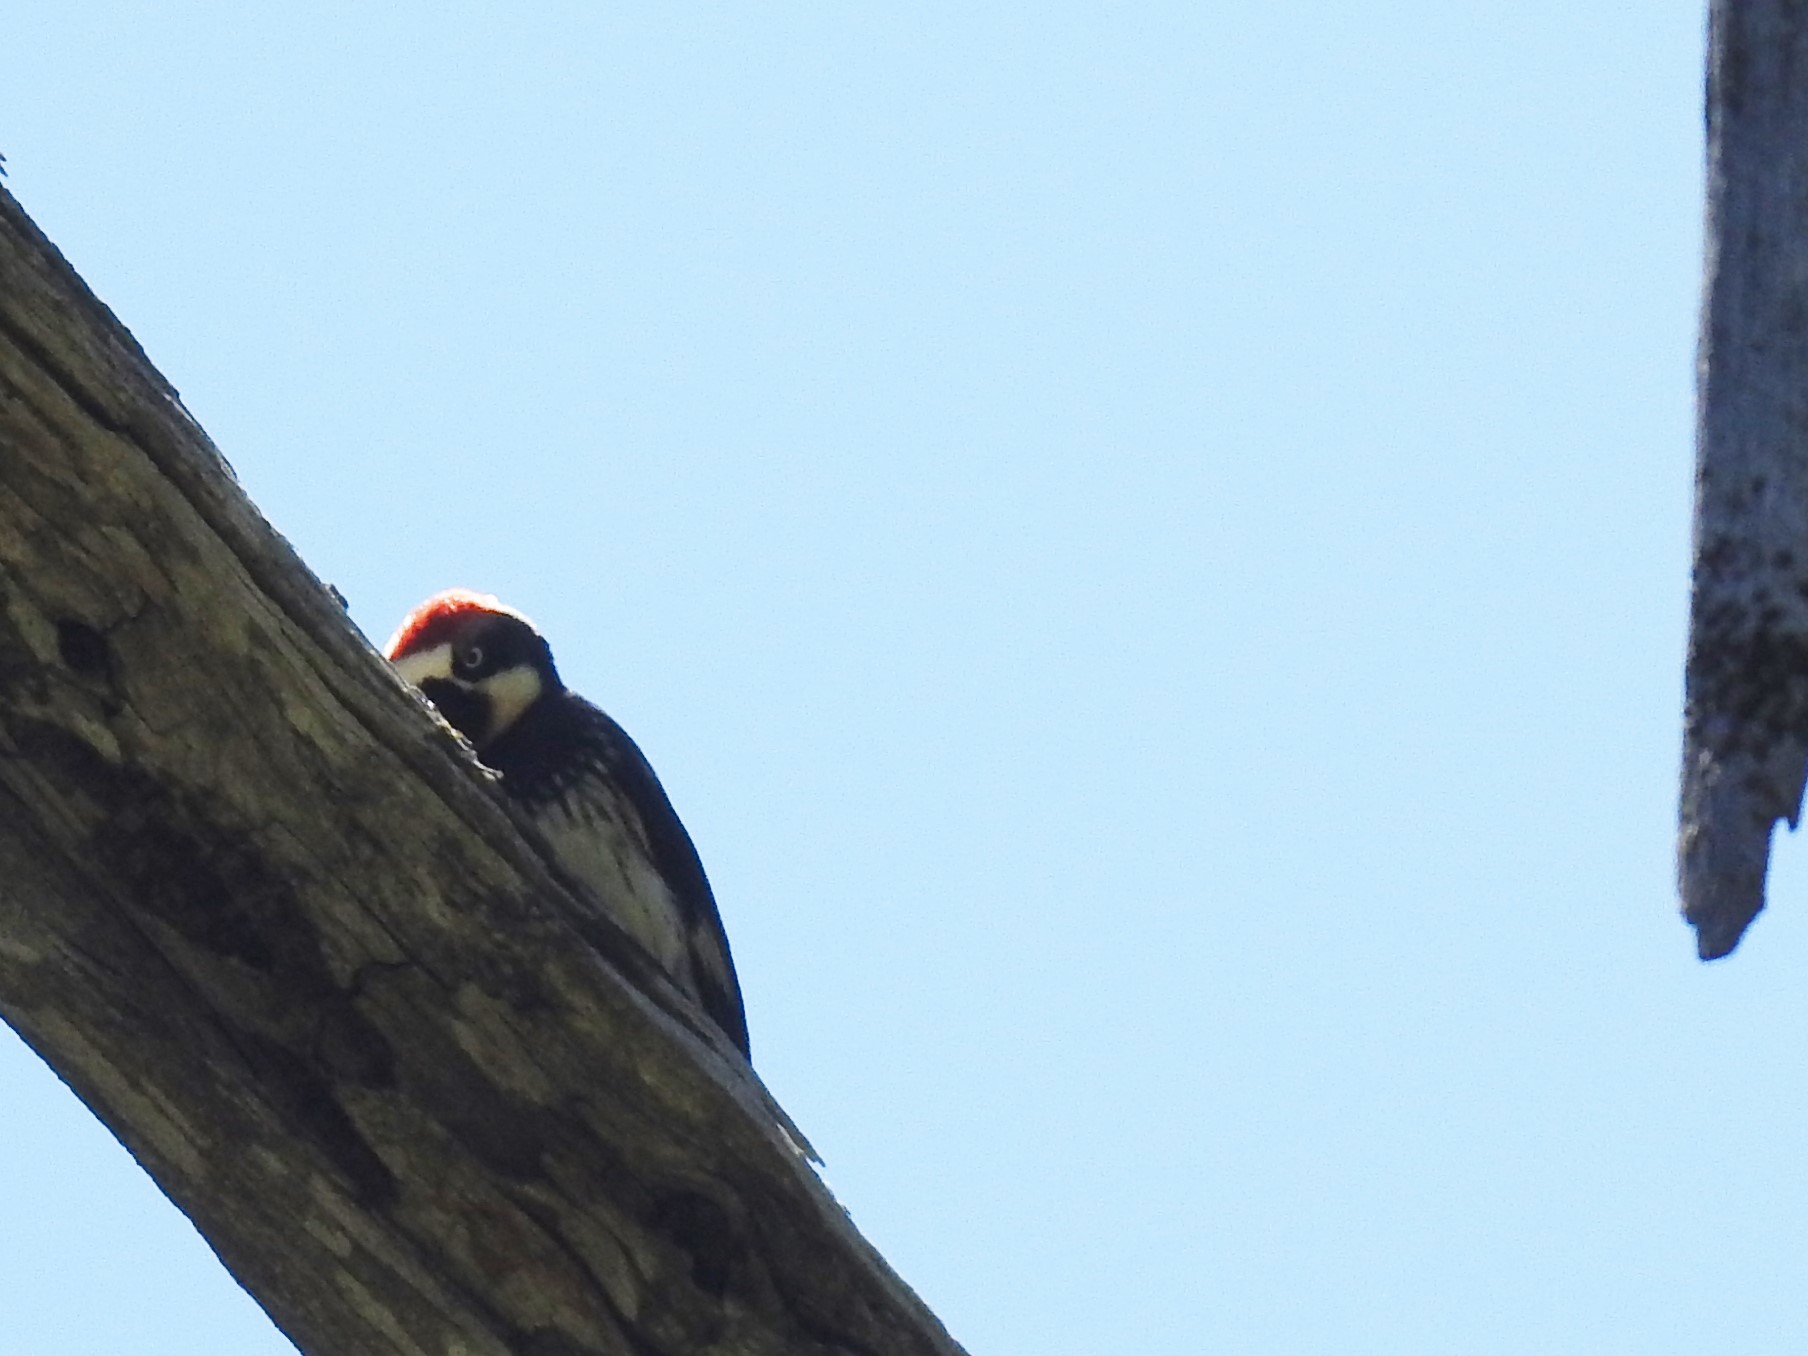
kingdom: Animalia
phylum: Chordata
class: Aves
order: Piciformes
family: Picidae
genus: Melanerpes
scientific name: Melanerpes formicivorus
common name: Acorn woodpecker
